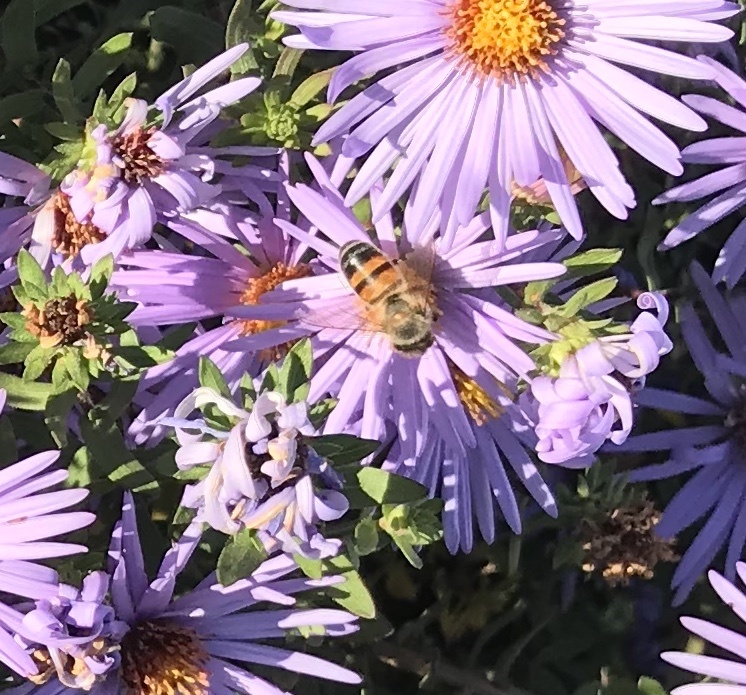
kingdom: Animalia
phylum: Arthropoda
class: Insecta
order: Hymenoptera
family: Apidae
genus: Apis
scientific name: Apis mellifera
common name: Honey bee
